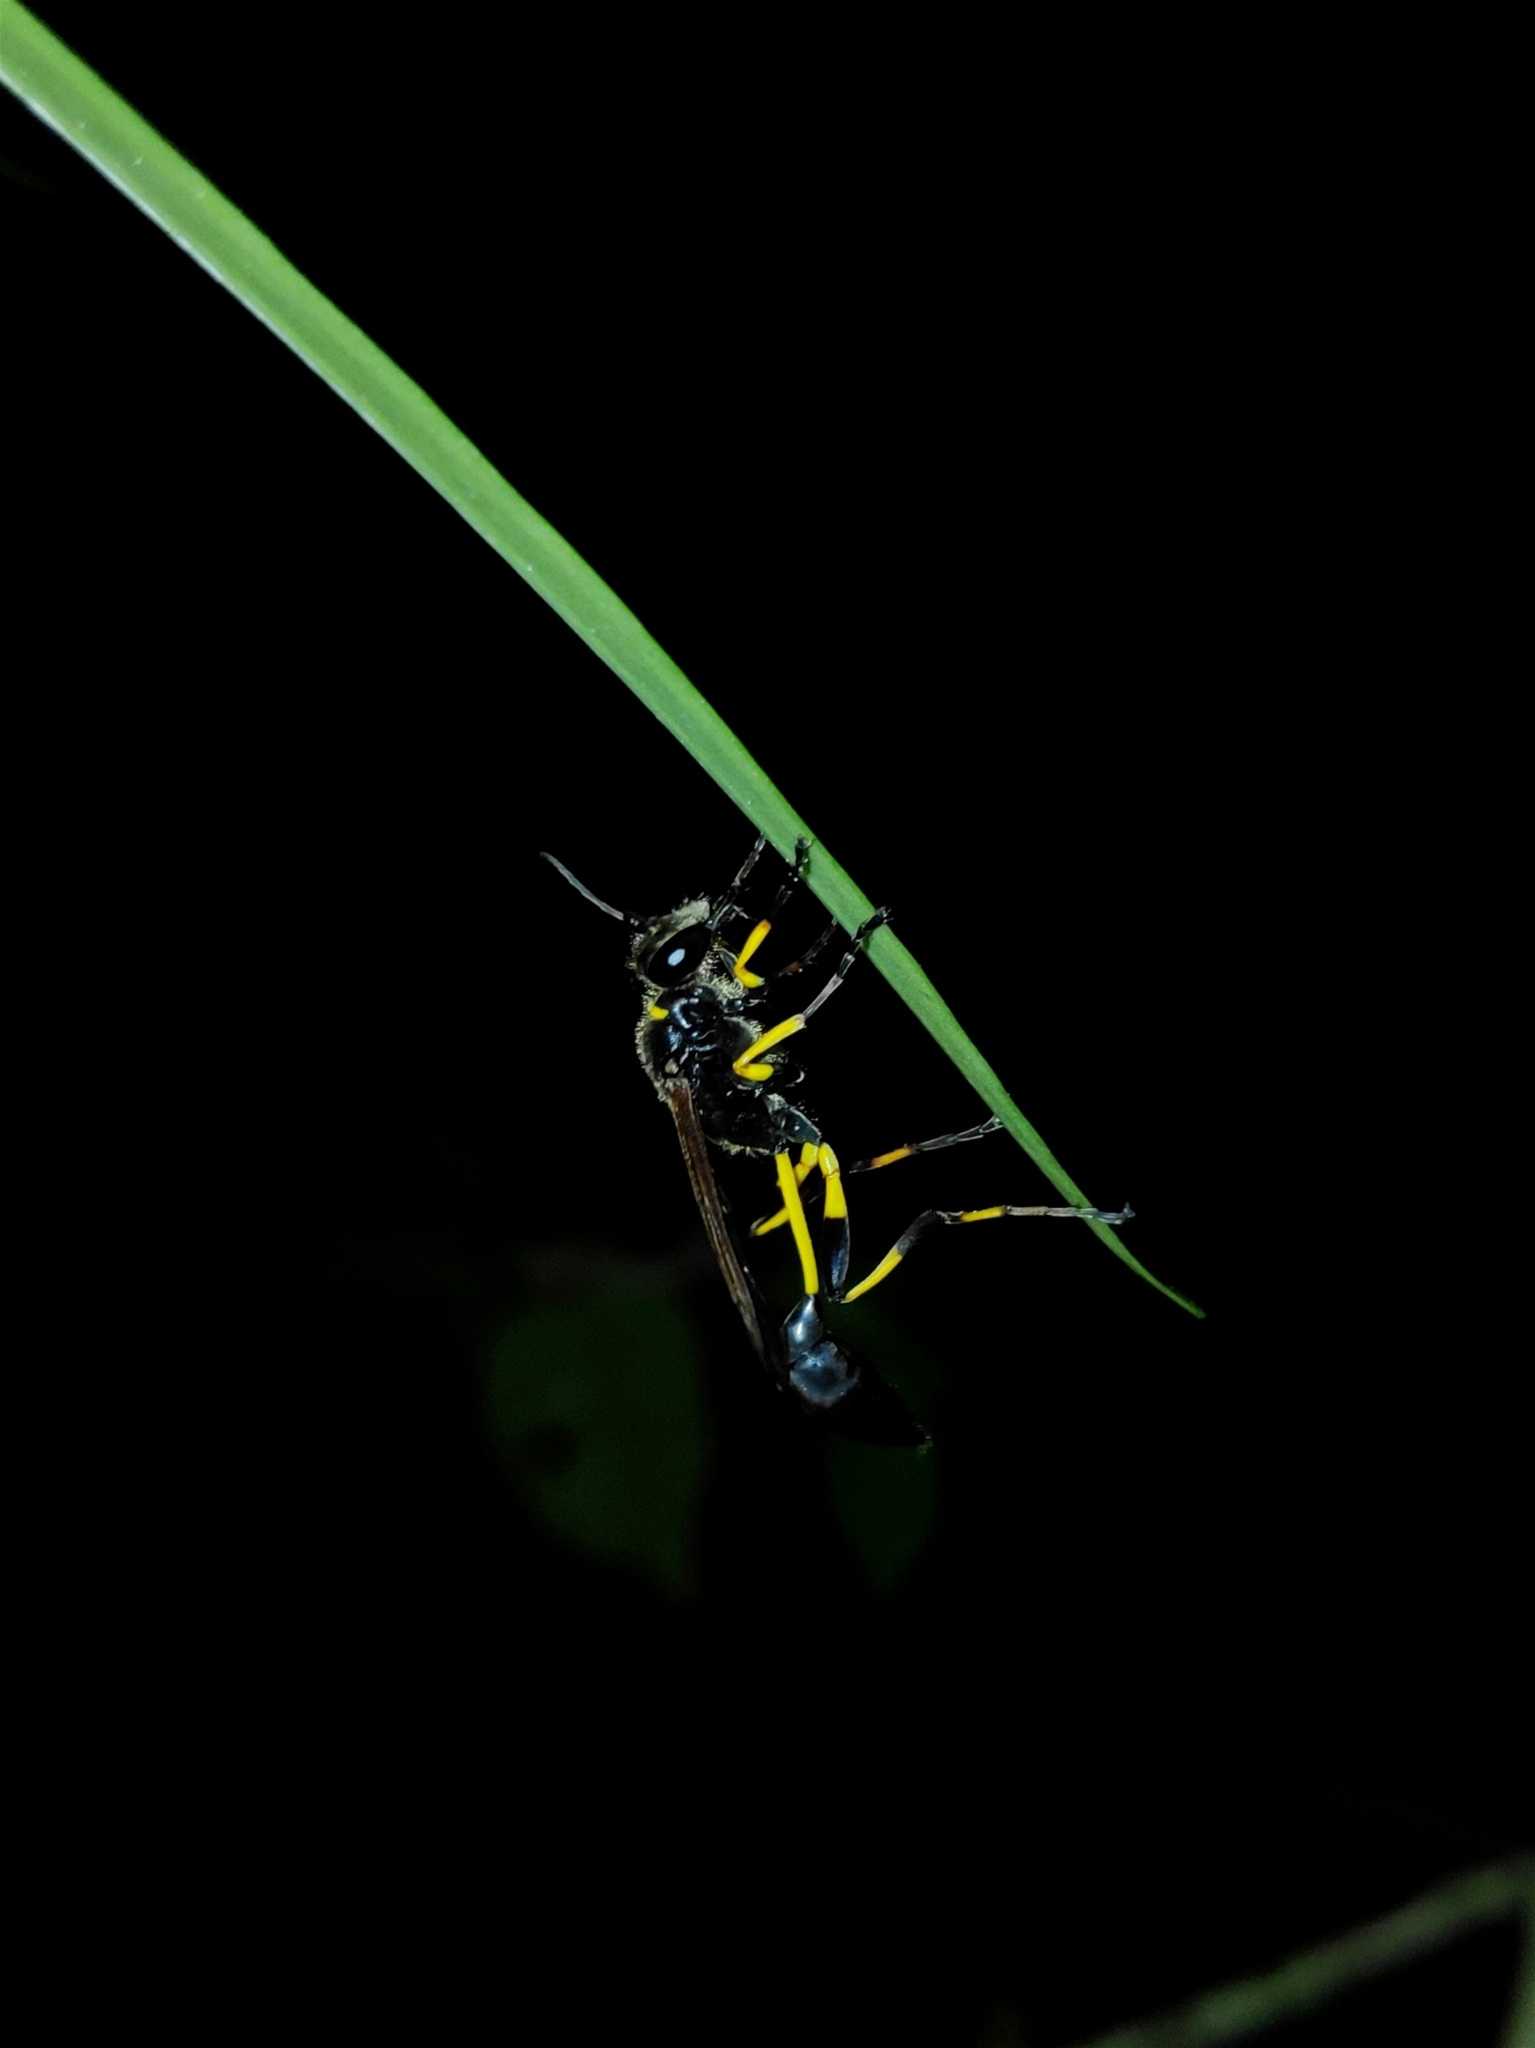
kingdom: Animalia
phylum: Arthropoda
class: Insecta
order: Hymenoptera
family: Sphecidae
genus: Sceliphron
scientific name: Sceliphron madraspatanum
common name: Mud dauber
